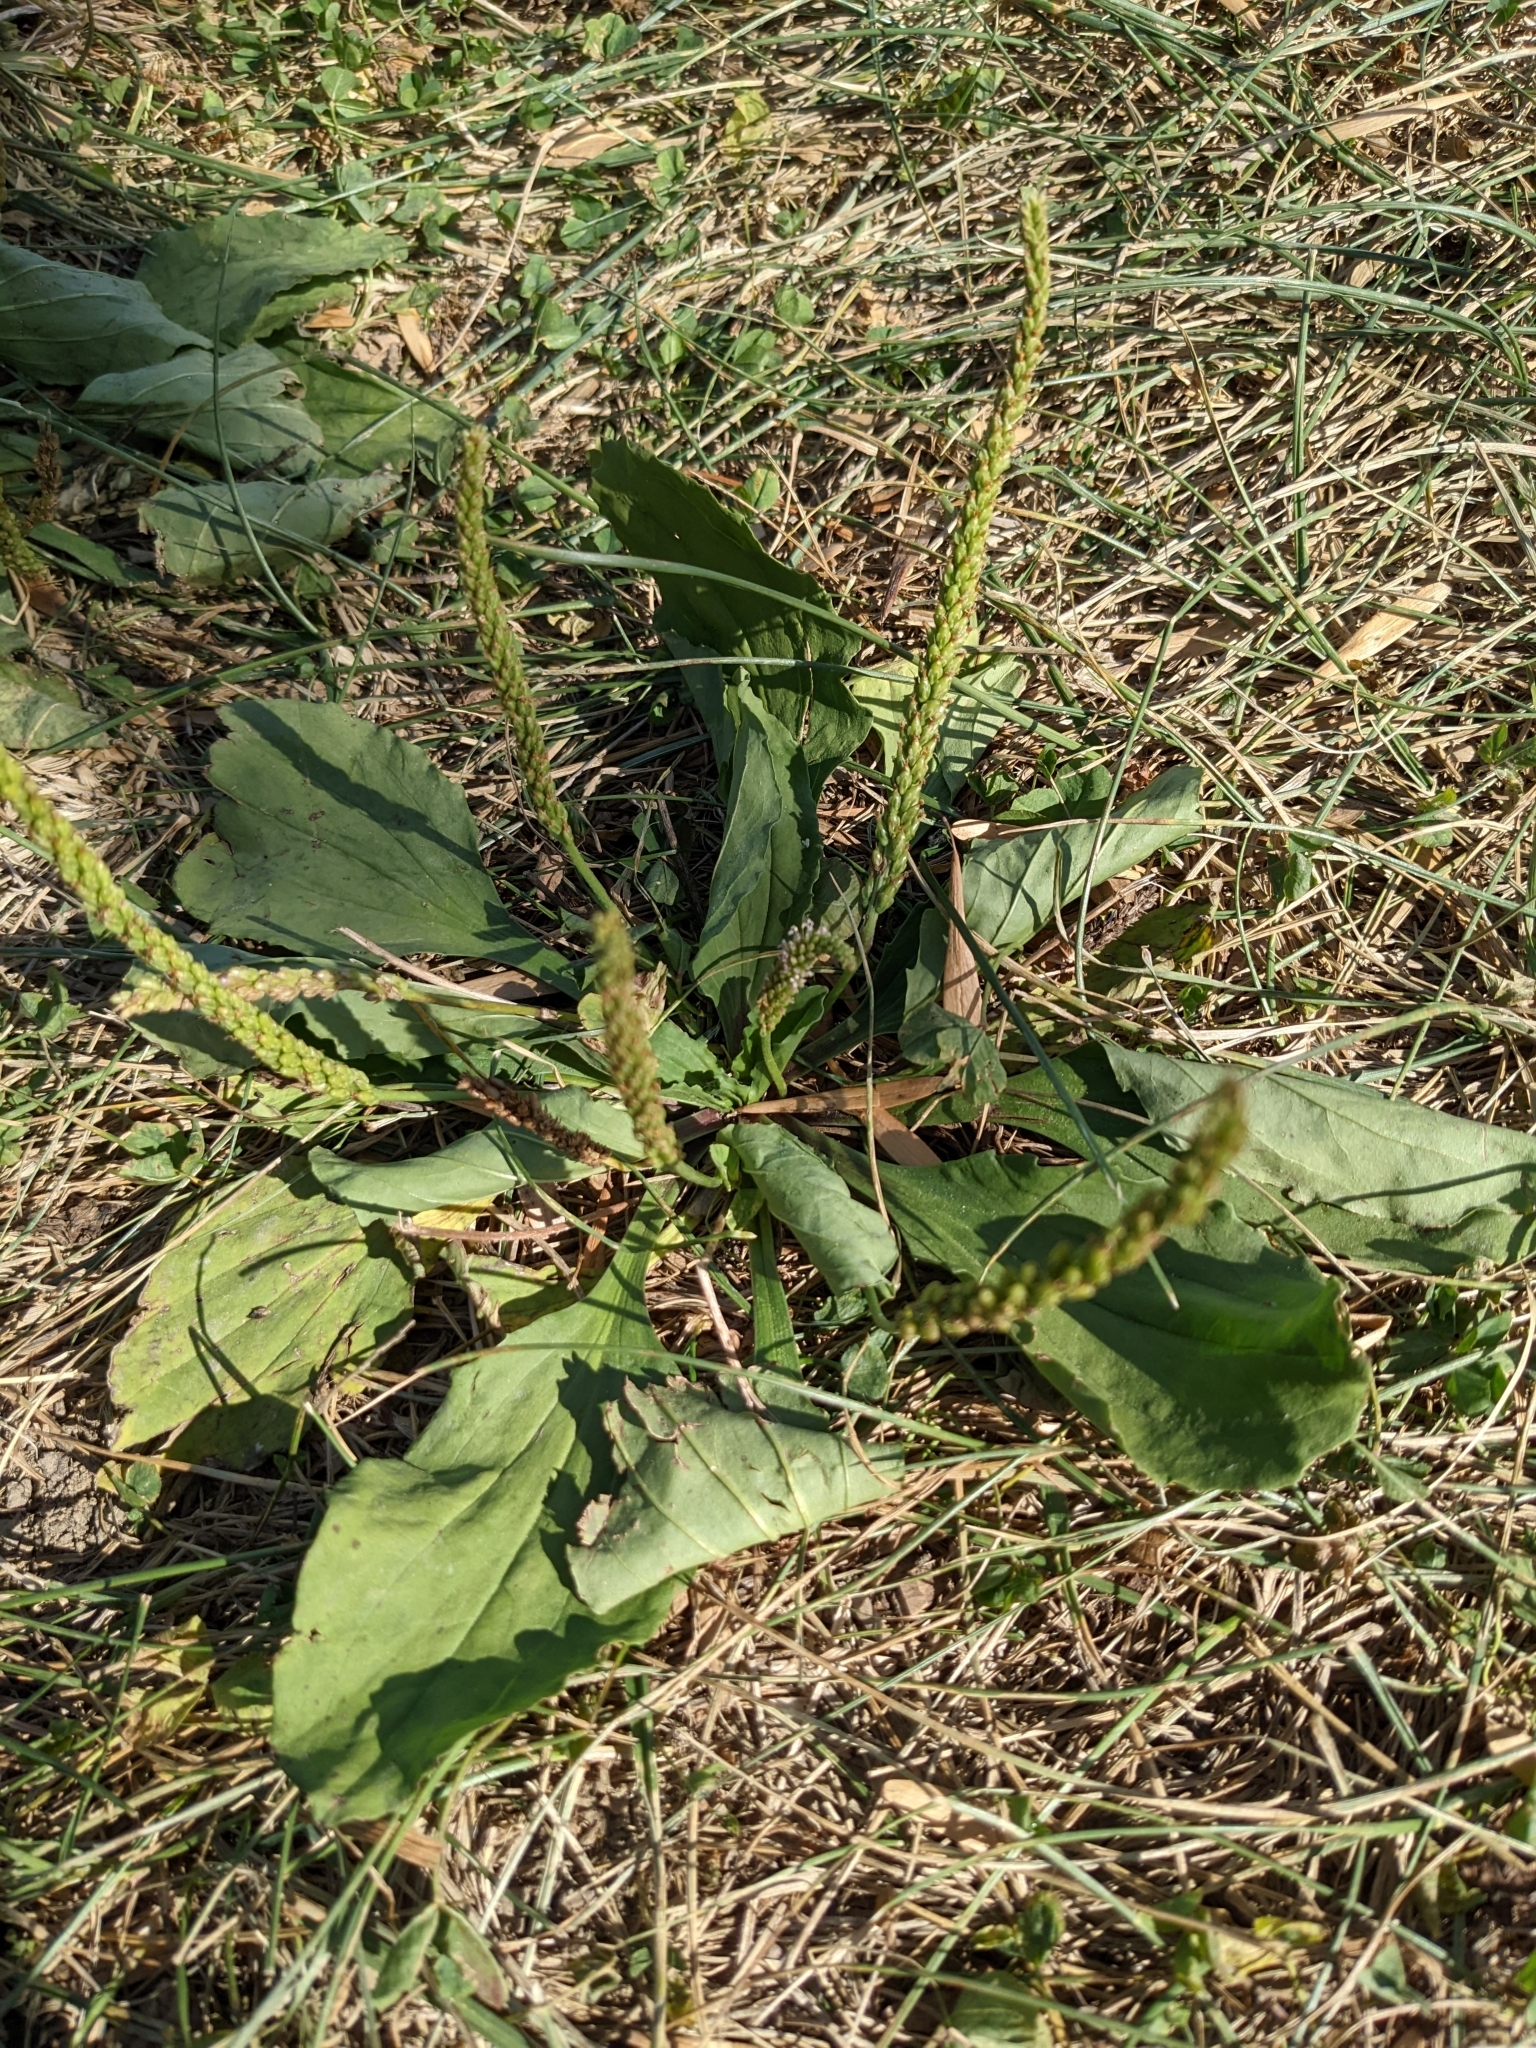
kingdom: Plantae
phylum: Tracheophyta
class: Magnoliopsida
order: Lamiales
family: Plantaginaceae
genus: Plantago
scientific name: Plantago rugelii
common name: American plantain
